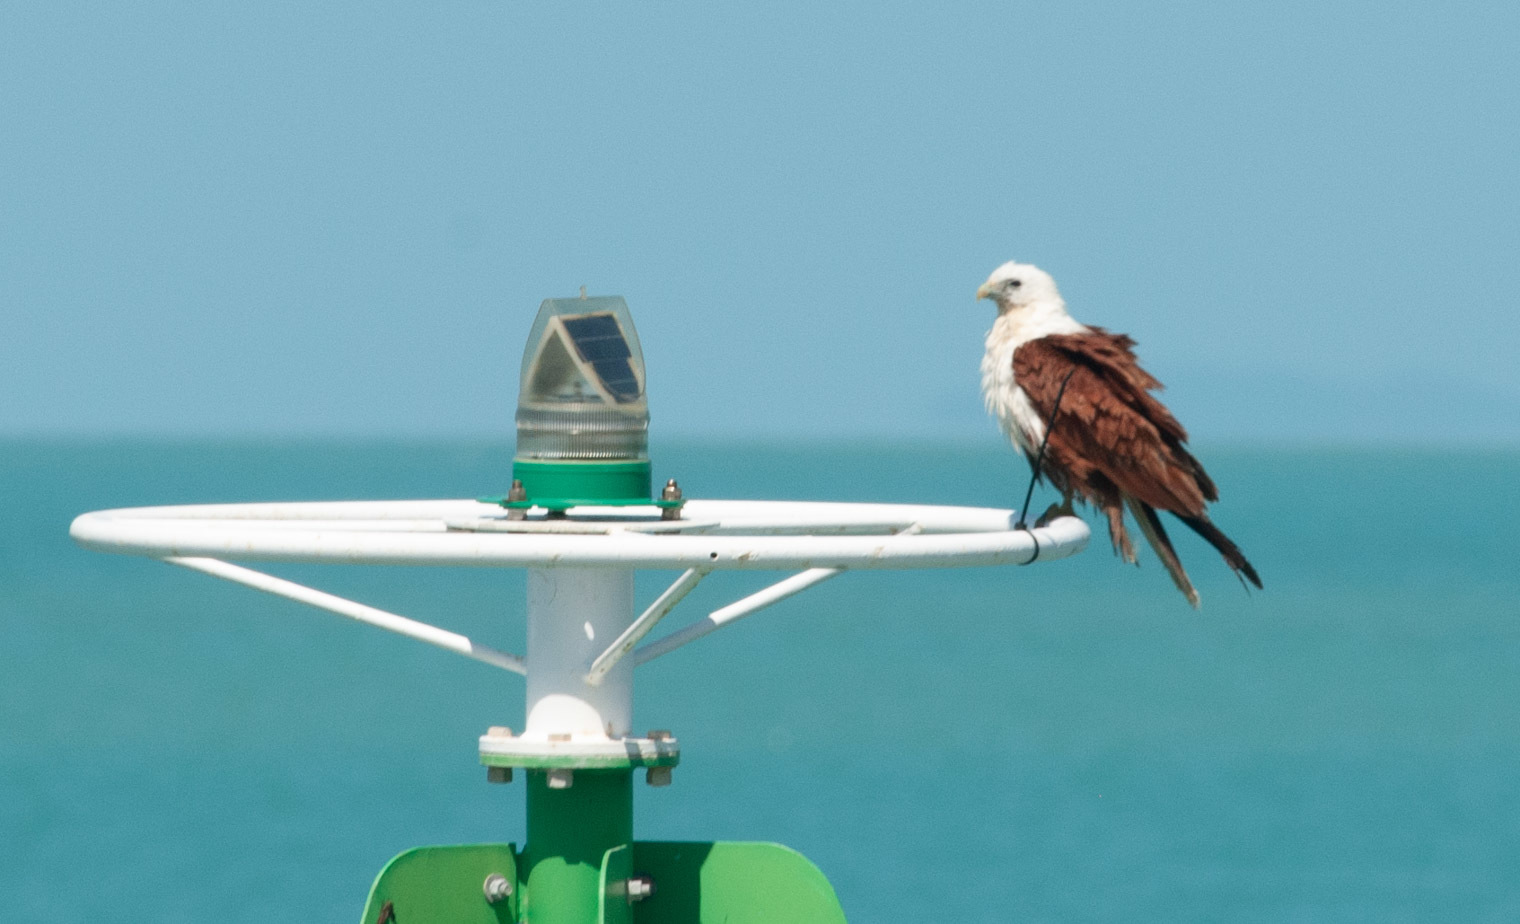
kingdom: Animalia
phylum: Chordata
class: Aves
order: Accipitriformes
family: Accipitridae
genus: Haliastur
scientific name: Haliastur indus
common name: Brahminy kite
